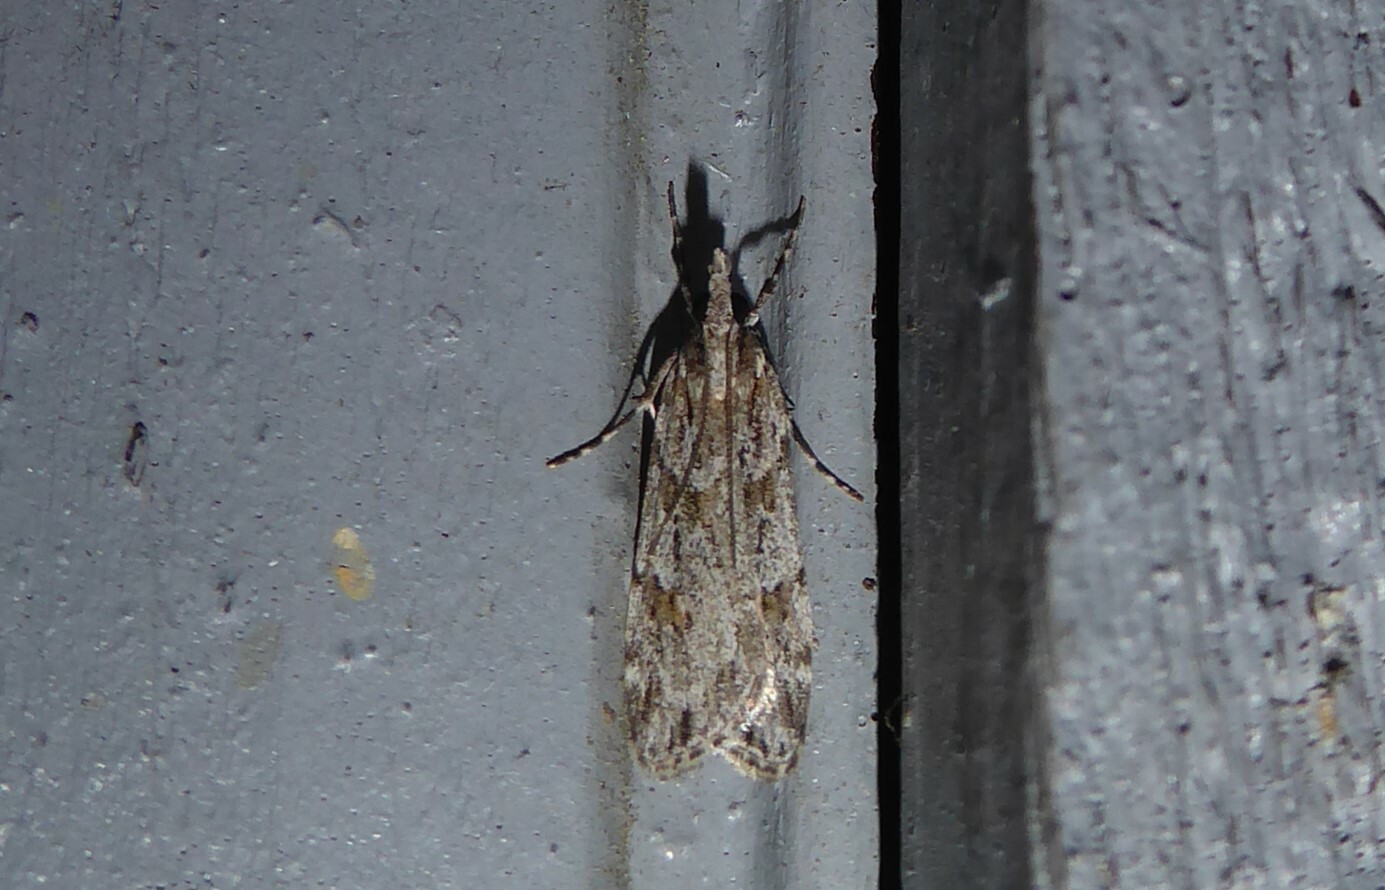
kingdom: Animalia
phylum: Arthropoda
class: Insecta
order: Lepidoptera
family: Crambidae
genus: Scoparia
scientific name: Scoparia chalicodes
